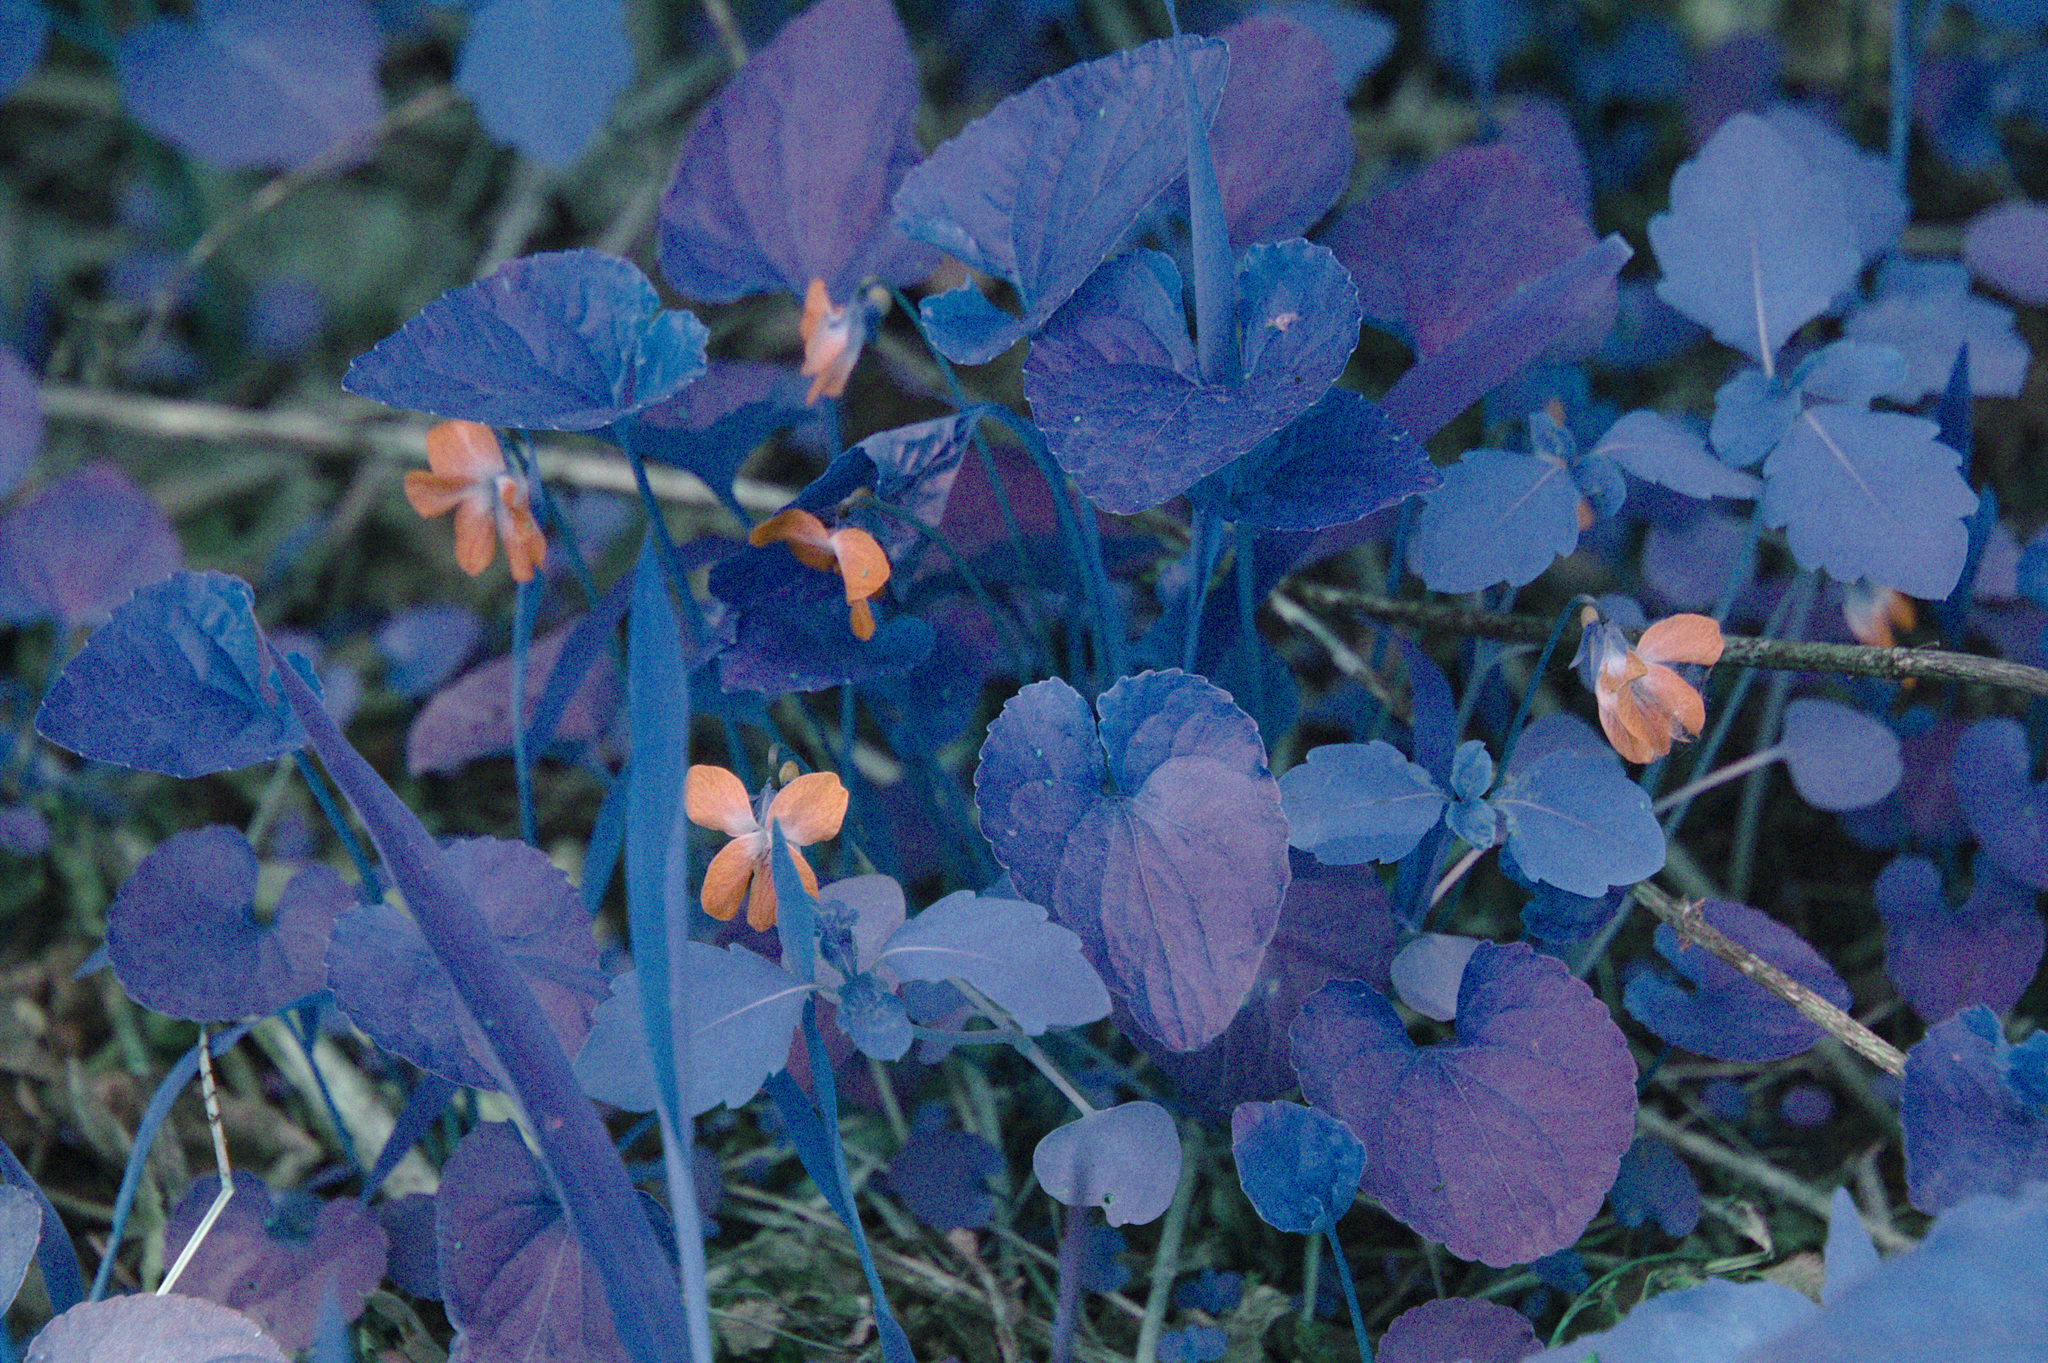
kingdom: Plantae
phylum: Tracheophyta
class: Magnoliopsida
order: Malpighiales
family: Violaceae
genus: Viola
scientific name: Viola cucullata
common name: Marsh blue violet
